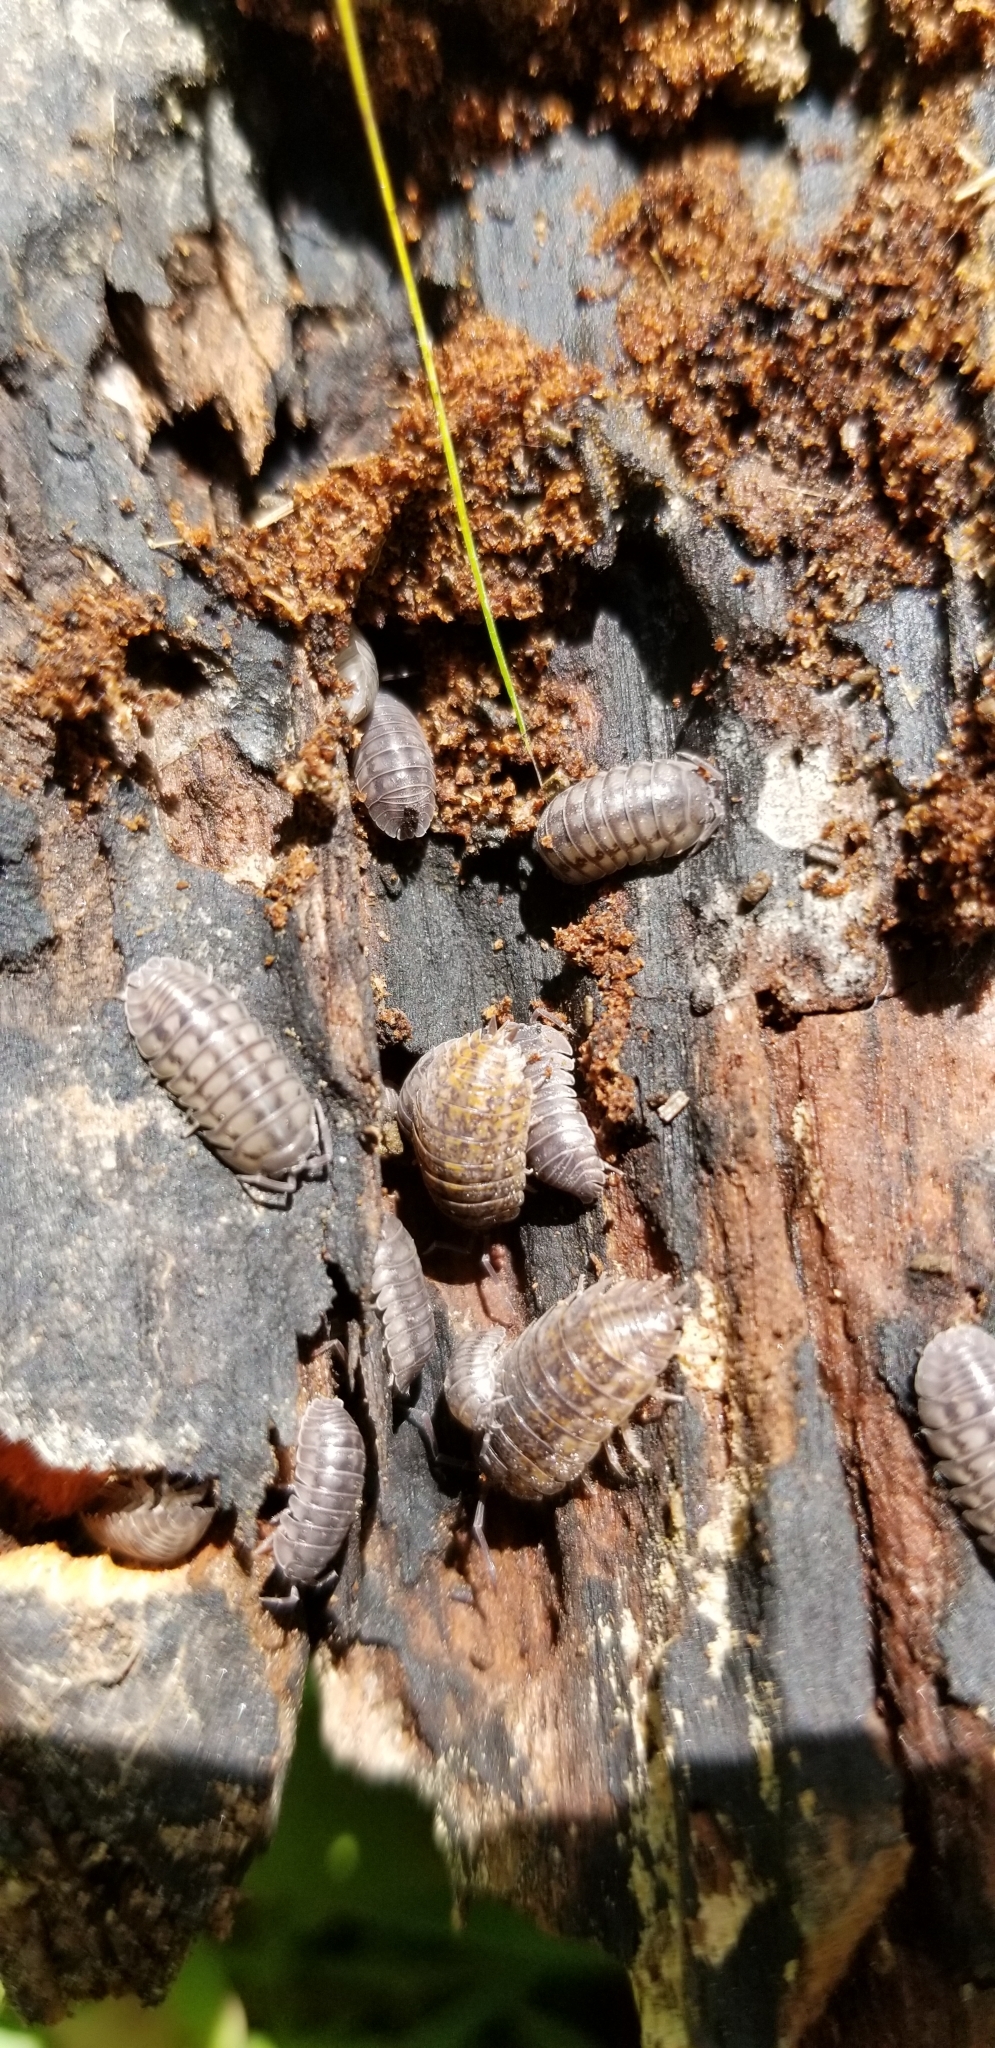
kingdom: Animalia
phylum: Arthropoda
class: Malacostraca
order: Isopoda
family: Armadillidiidae
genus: Armadillidium
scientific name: Armadillidium nasatum
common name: Isopod
